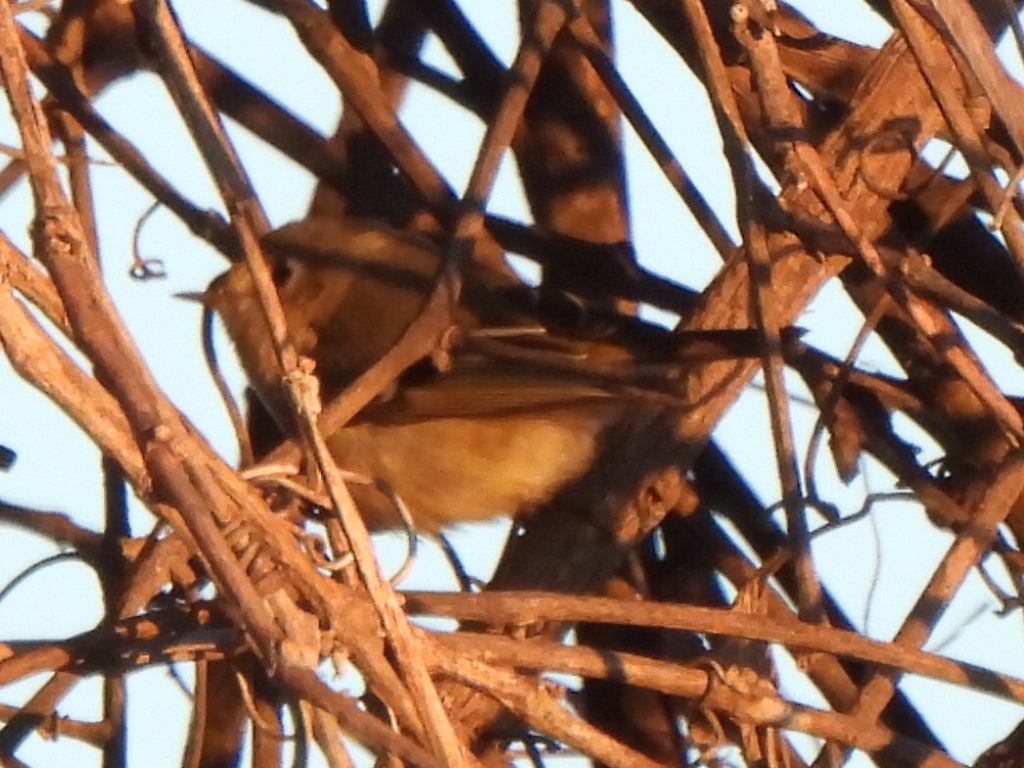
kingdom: Animalia
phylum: Chordata
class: Aves
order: Passeriformes
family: Regulidae
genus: Regulus
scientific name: Regulus calendula
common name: Ruby-crowned kinglet
